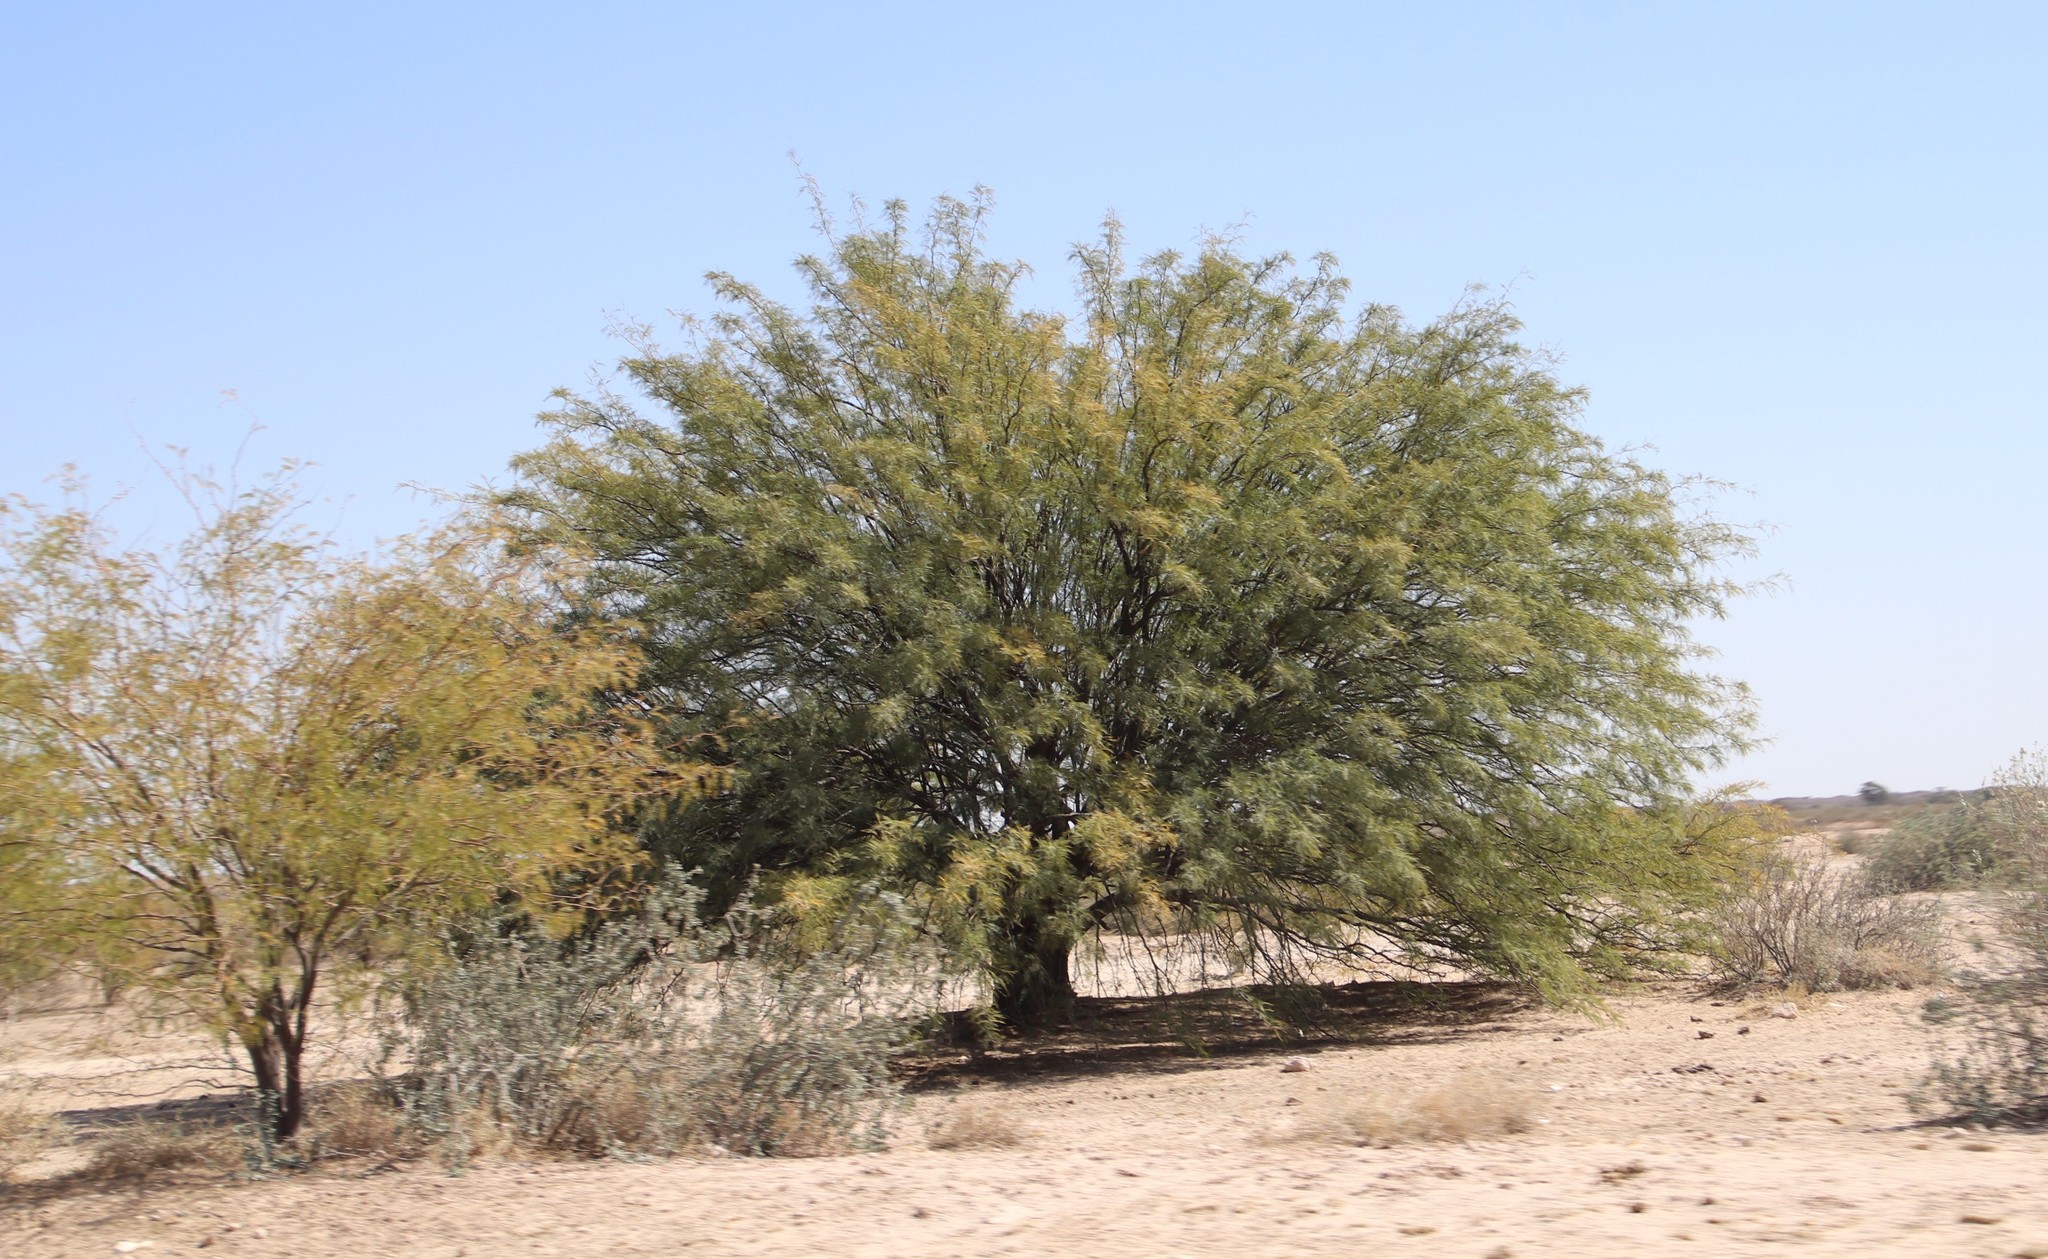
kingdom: Plantae
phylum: Tracheophyta
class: Magnoliopsida
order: Fabales
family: Fabaceae
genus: Prosopis
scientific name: Prosopis pubescens
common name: Screw-bean
